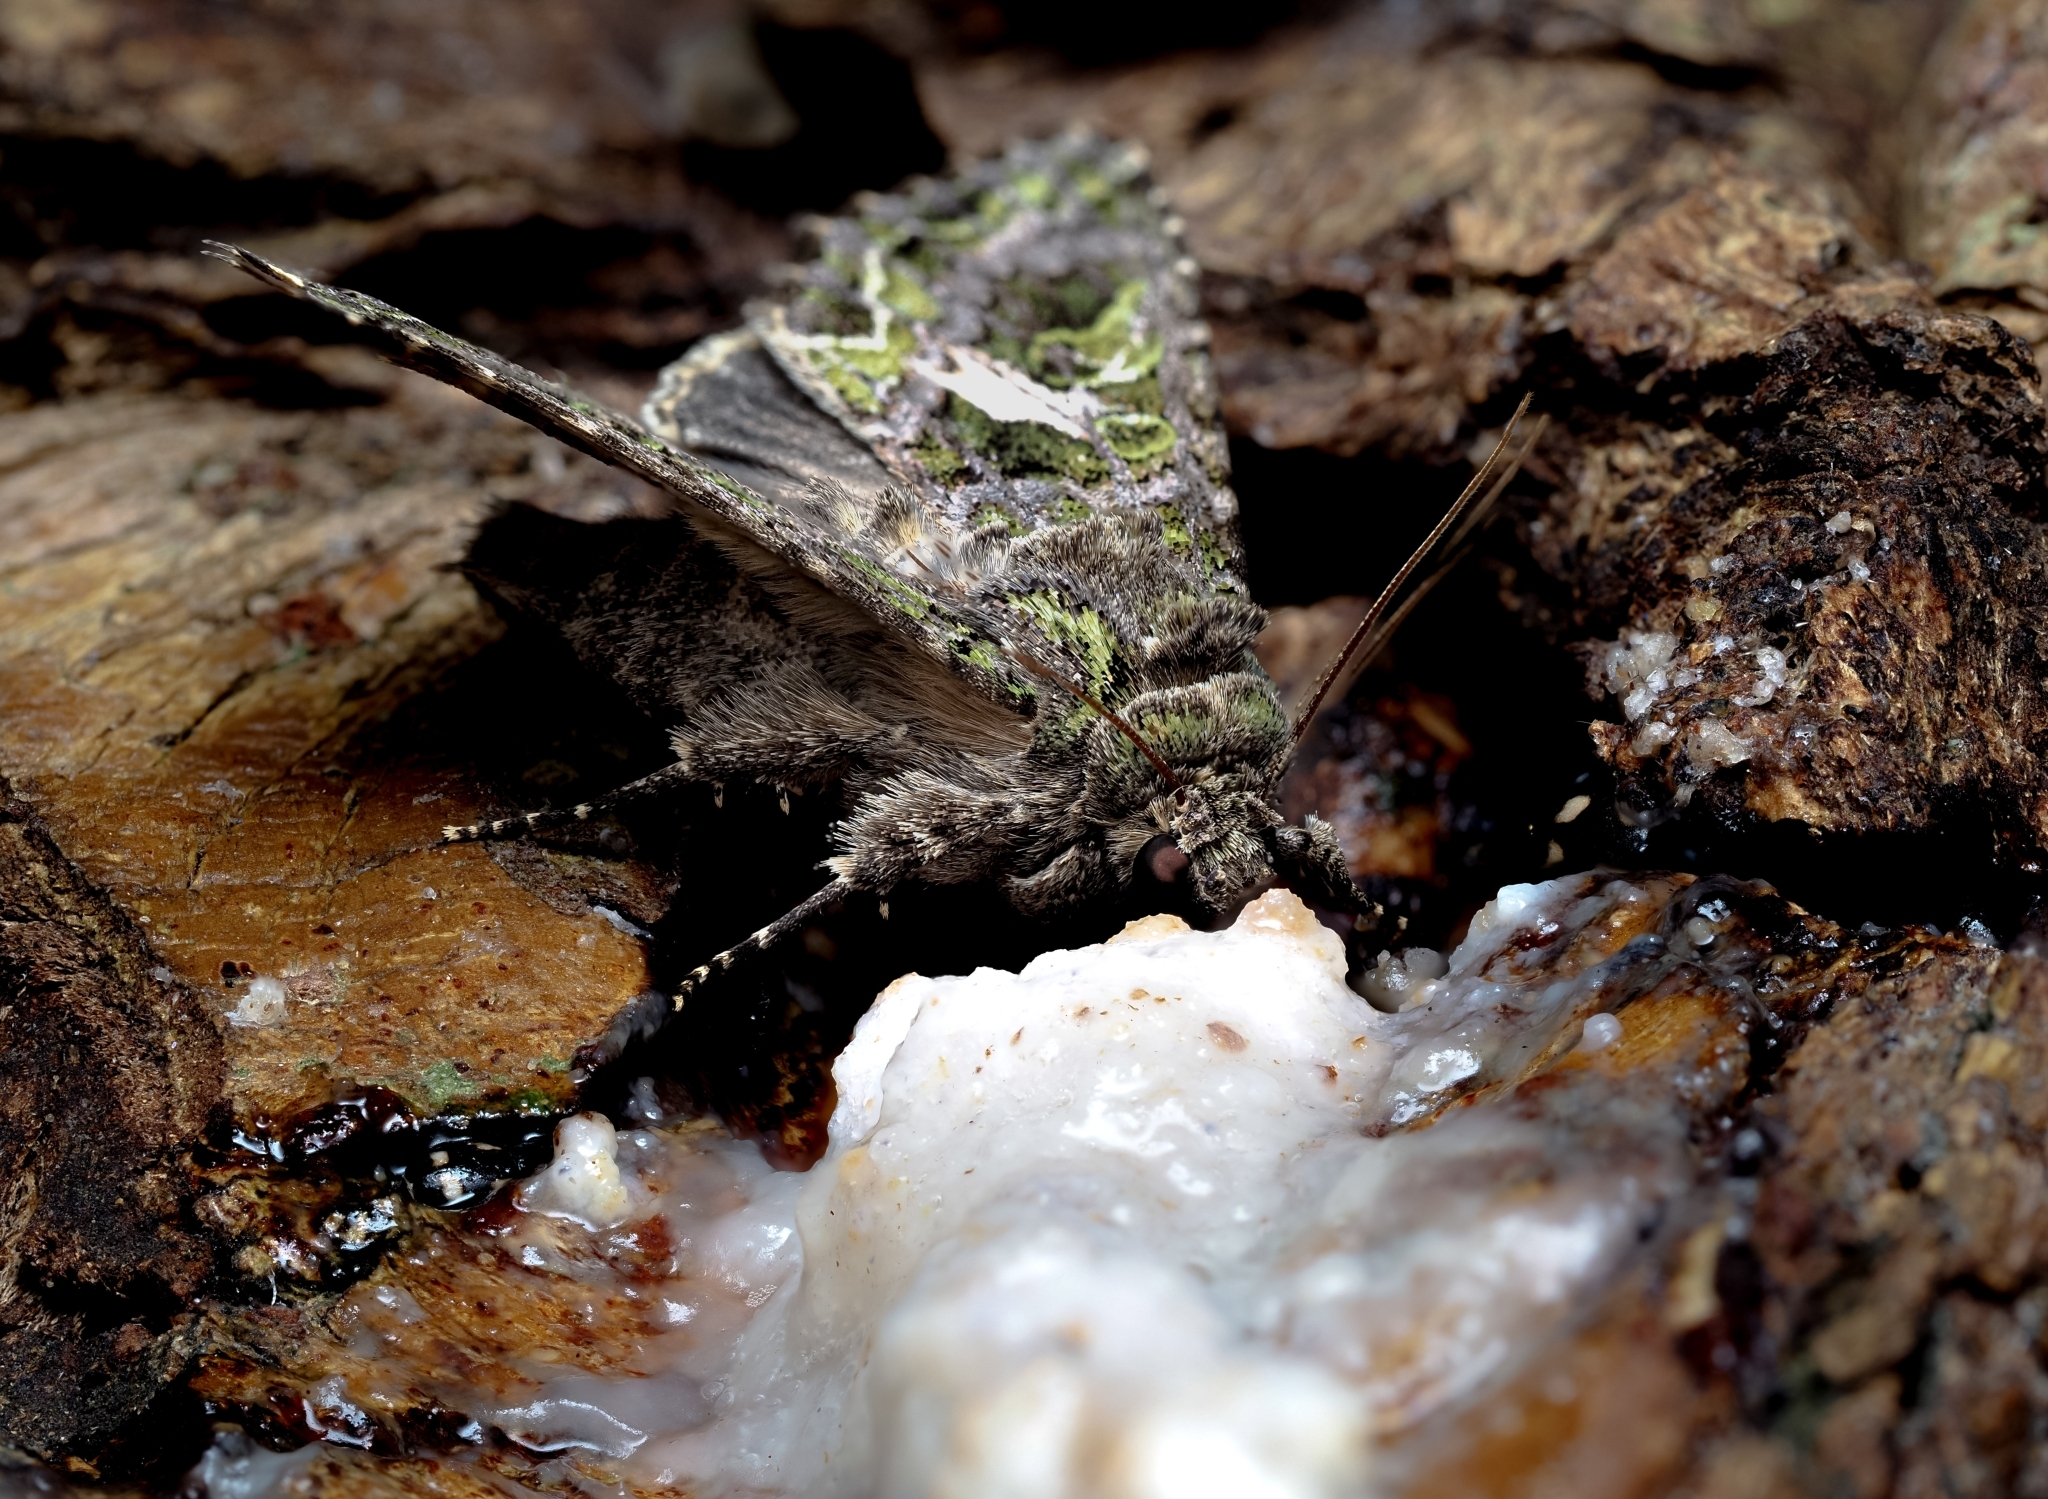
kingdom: Animalia
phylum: Arthropoda
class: Insecta
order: Lepidoptera
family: Noctuidae
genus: Trachea
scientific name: Trachea atriplicis
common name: Orache moth
